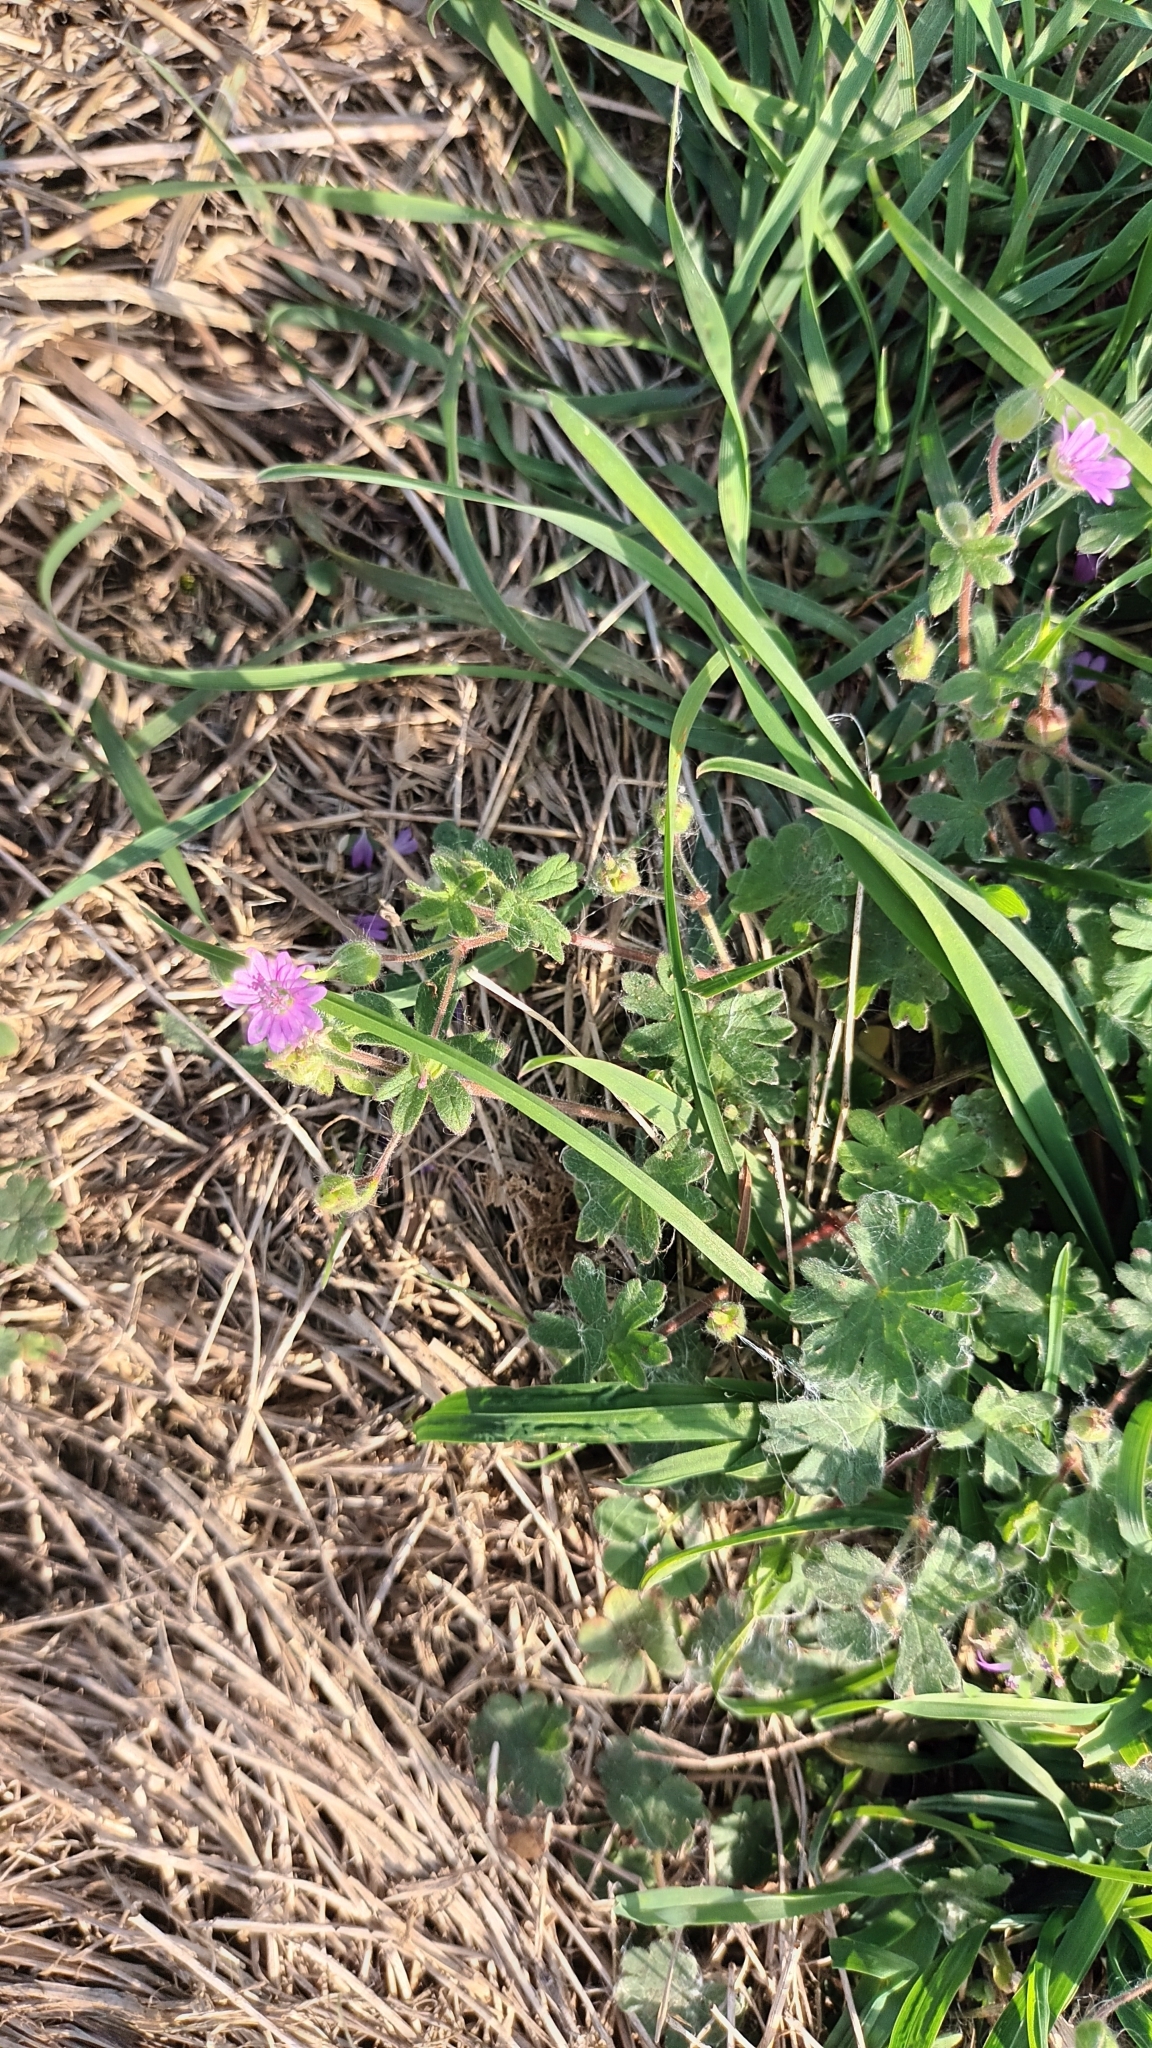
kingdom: Plantae
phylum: Tracheophyta
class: Magnoliopsida
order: Geraniales
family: Geraniaceae
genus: Geranium
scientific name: Geranium molle
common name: Dove's-foot crane's-bill
